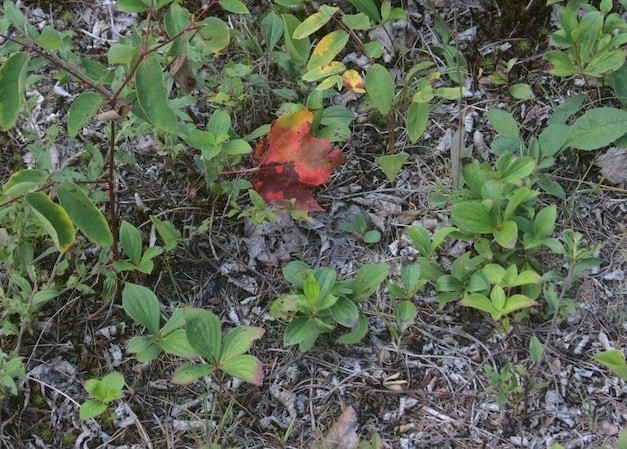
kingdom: Plantae
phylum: Tracheophyta
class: Magnoliopsida
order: Cornales
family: Cornaceae
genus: Cornus
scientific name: Cornus canadensis
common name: Creeping dogwood
